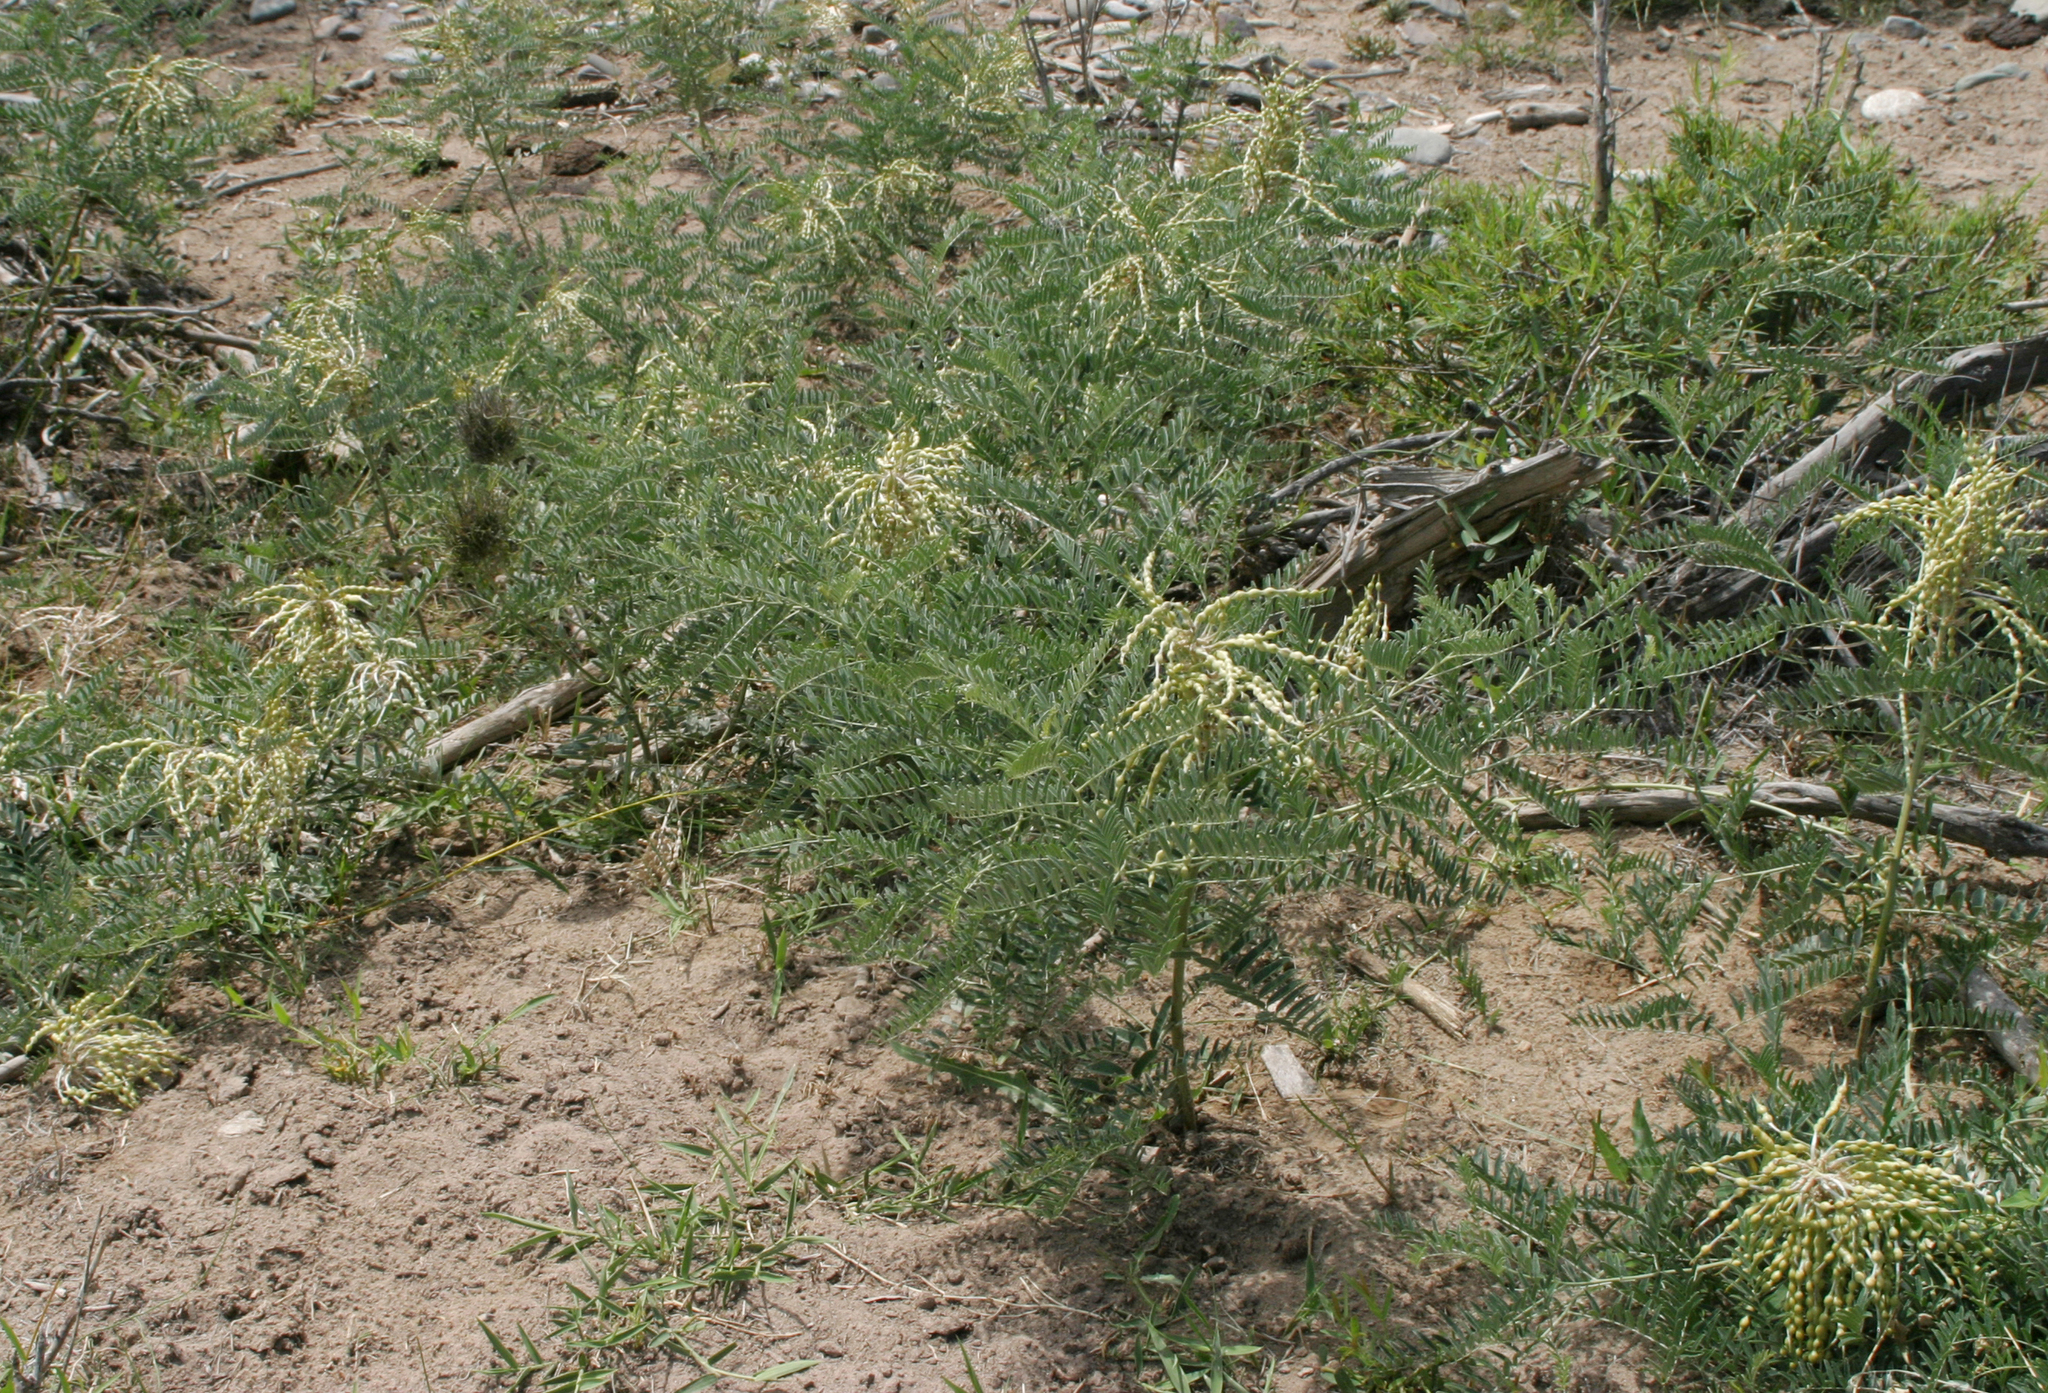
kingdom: Plantae
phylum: Tracheophyta
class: Magnoliopsida
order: Fabales
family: Fabaceae
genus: Sophora
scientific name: Sophora alopecuroides
